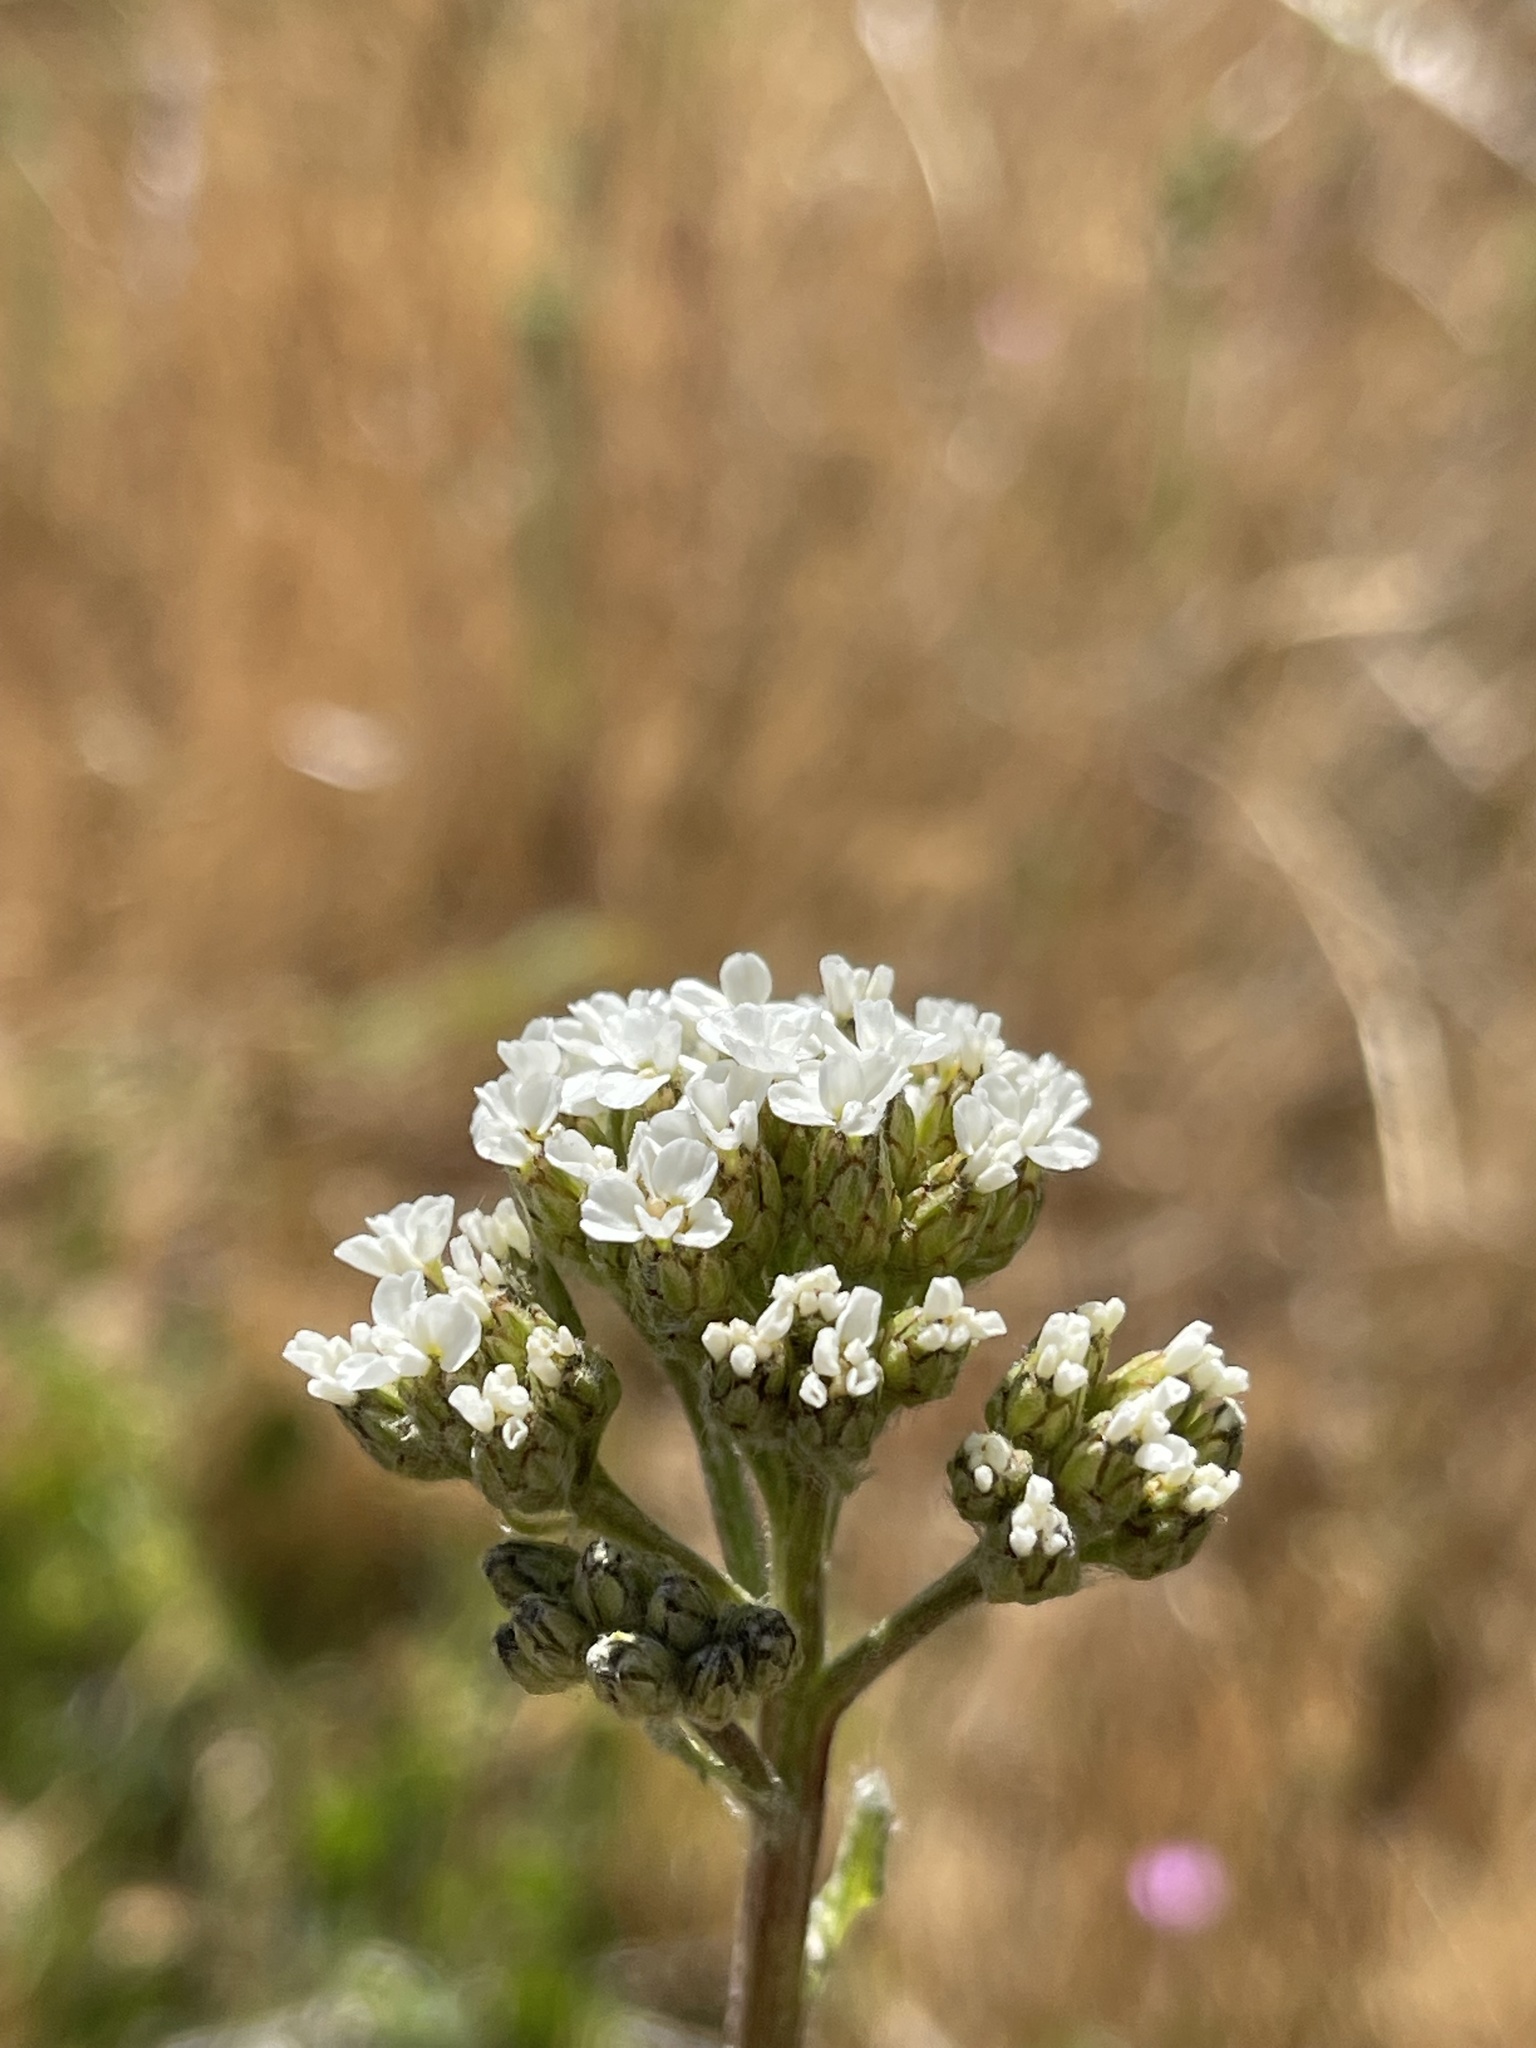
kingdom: Plantae
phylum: Tracheophyta
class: Magnoliopsida
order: Asterales
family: Asteraceae
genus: Achillea
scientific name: Achillea millefolium
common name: Yarrow
